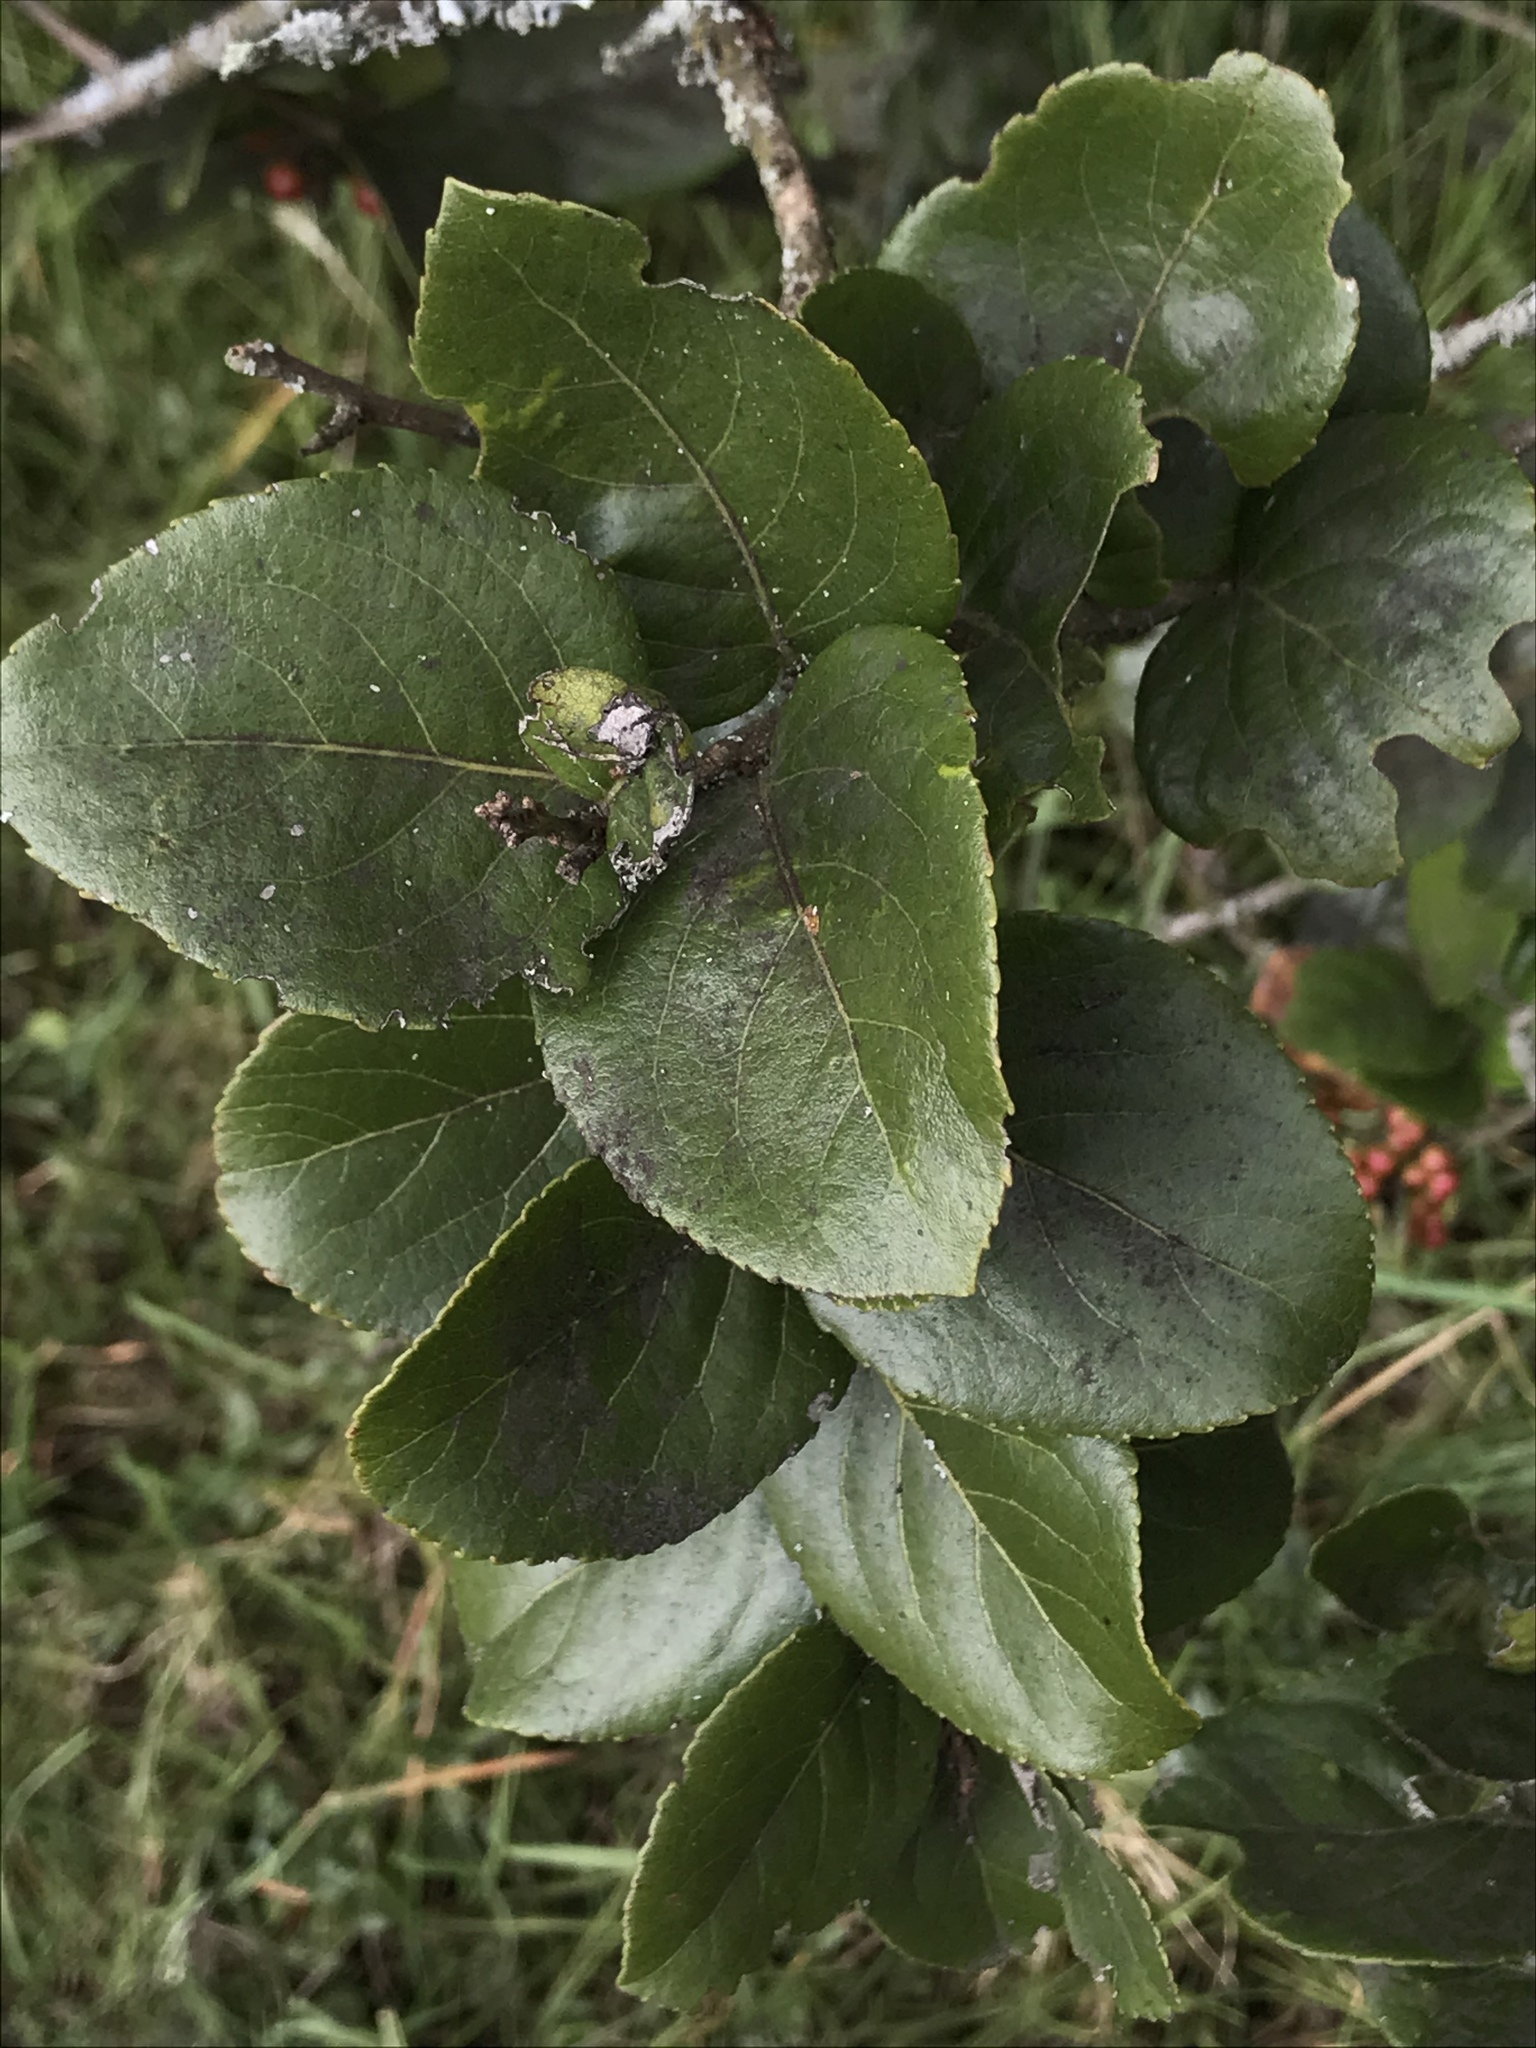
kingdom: Plantae
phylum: Tracheophyta
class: Magnoliopsida
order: Malpighiales
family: Salicaceae
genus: Xylosma
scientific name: Xylosma spiculifera
